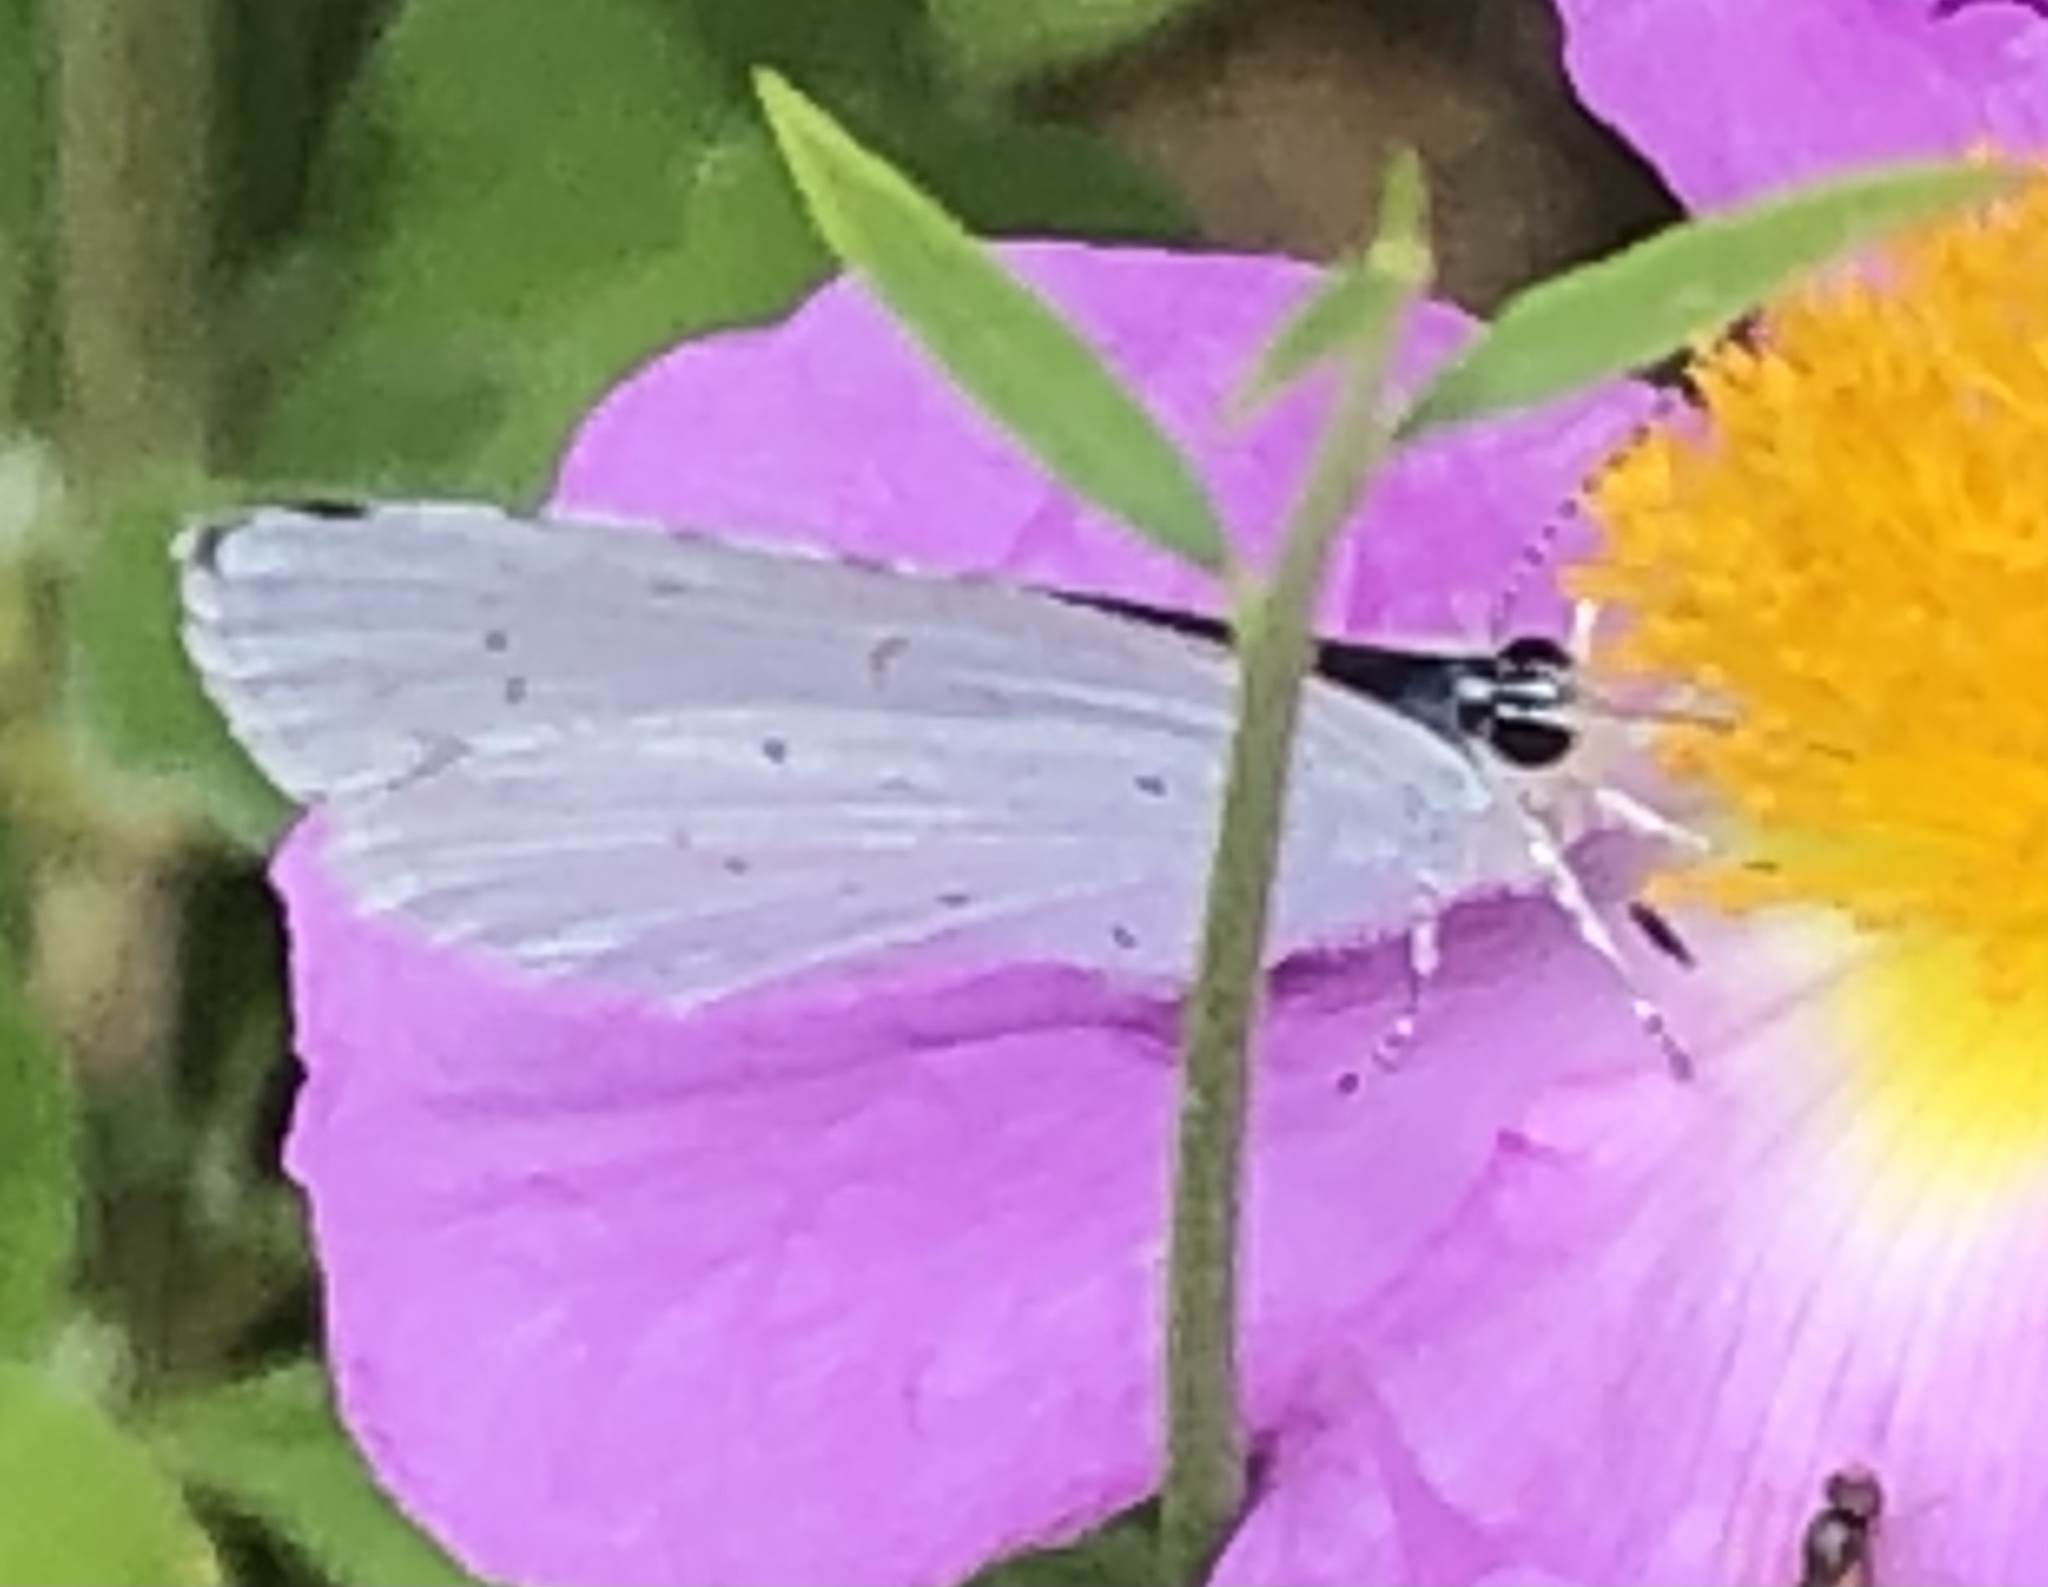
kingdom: Animalia
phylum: Arthropoda
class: Insecta
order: Lepidoptera
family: Lycaenidae
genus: Celastrina
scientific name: Celastrina argiolus
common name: Holly blue
